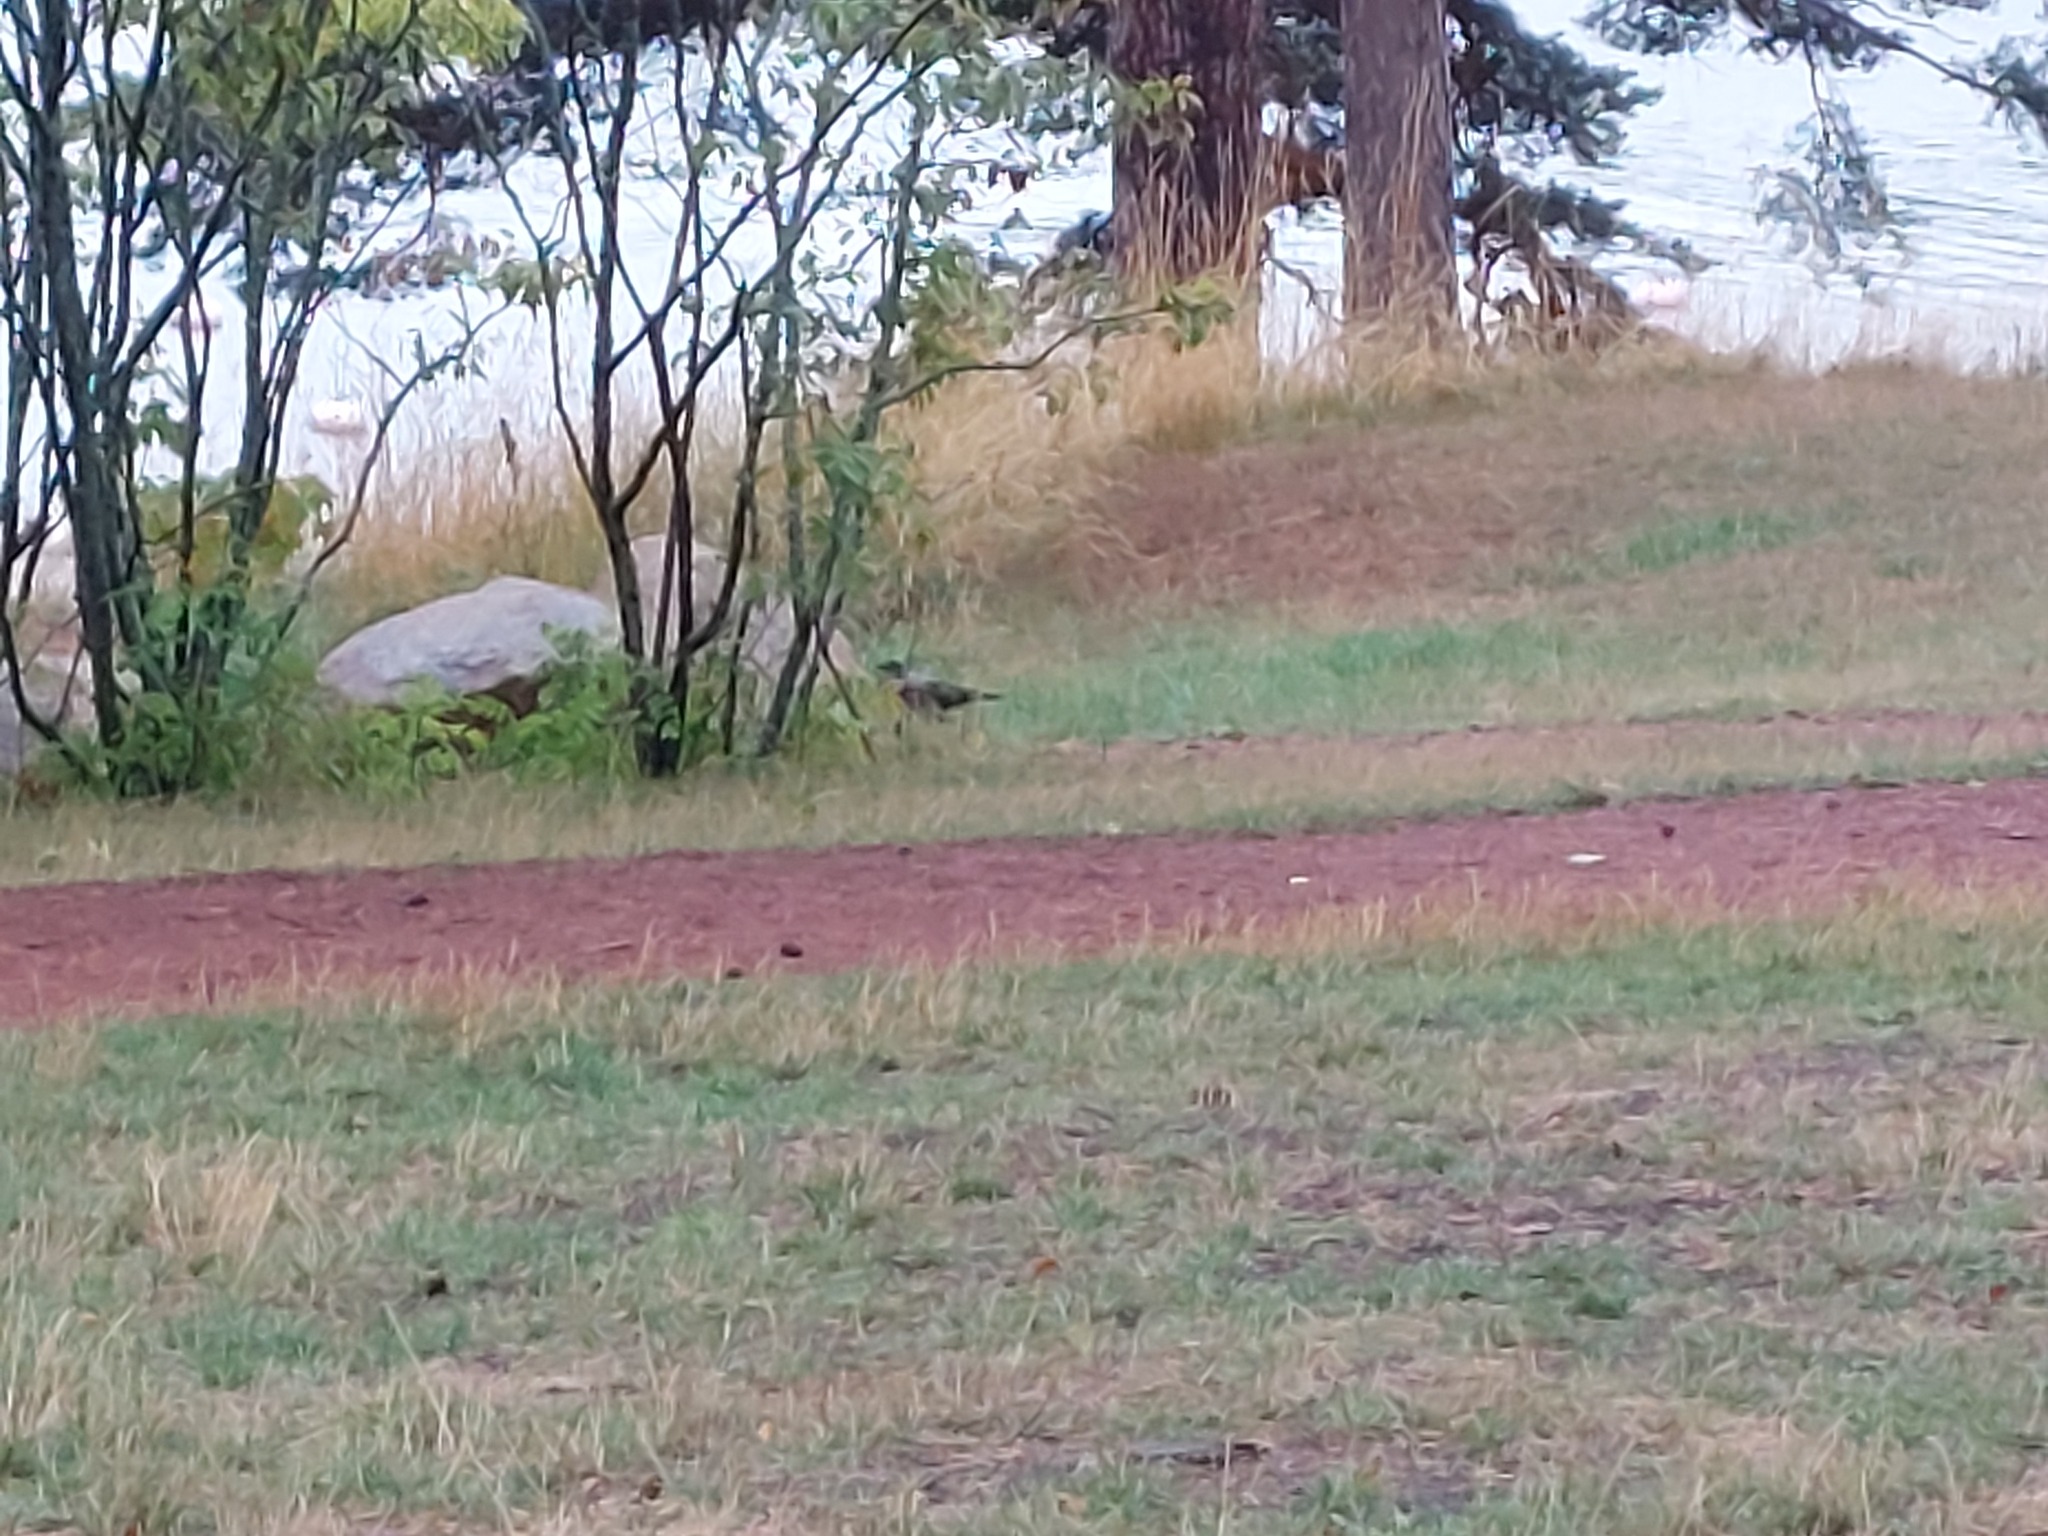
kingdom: Animalia
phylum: Chordata
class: Aves
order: Passeriformes
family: Corvidae
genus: Corvus
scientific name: Corvus cornix
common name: Hooded crow
